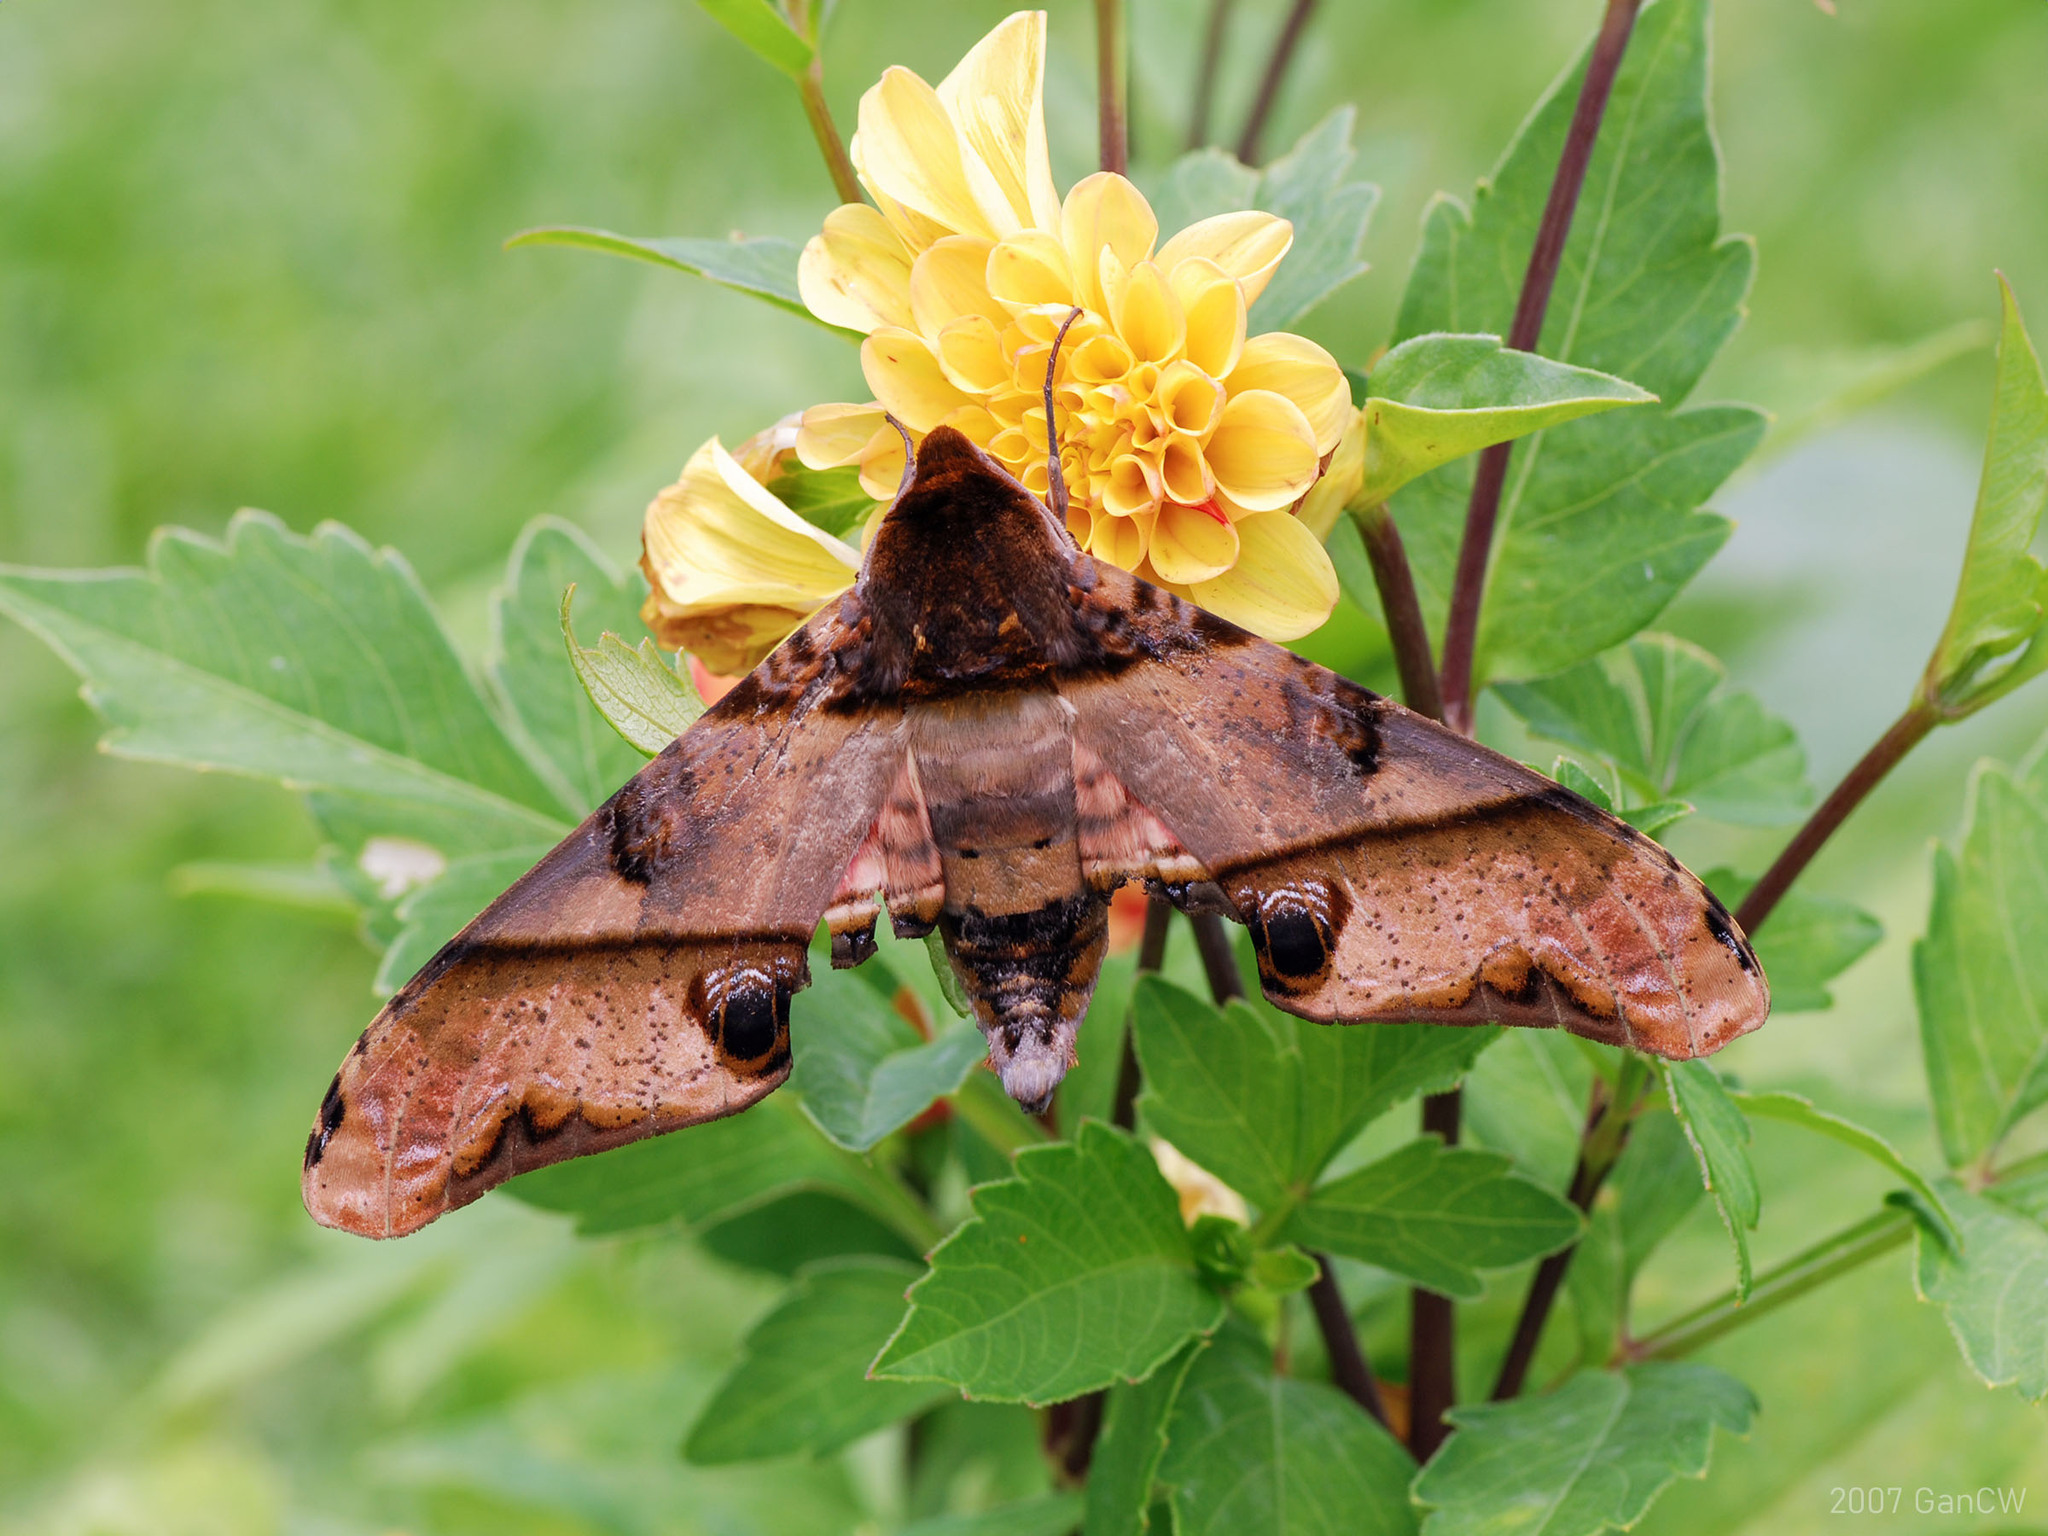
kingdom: Animalia
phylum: Arthropoda
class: Insecta
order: Lepidoptera
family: Sphingidae
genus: Amplypterus
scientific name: Amplypterus panopus
